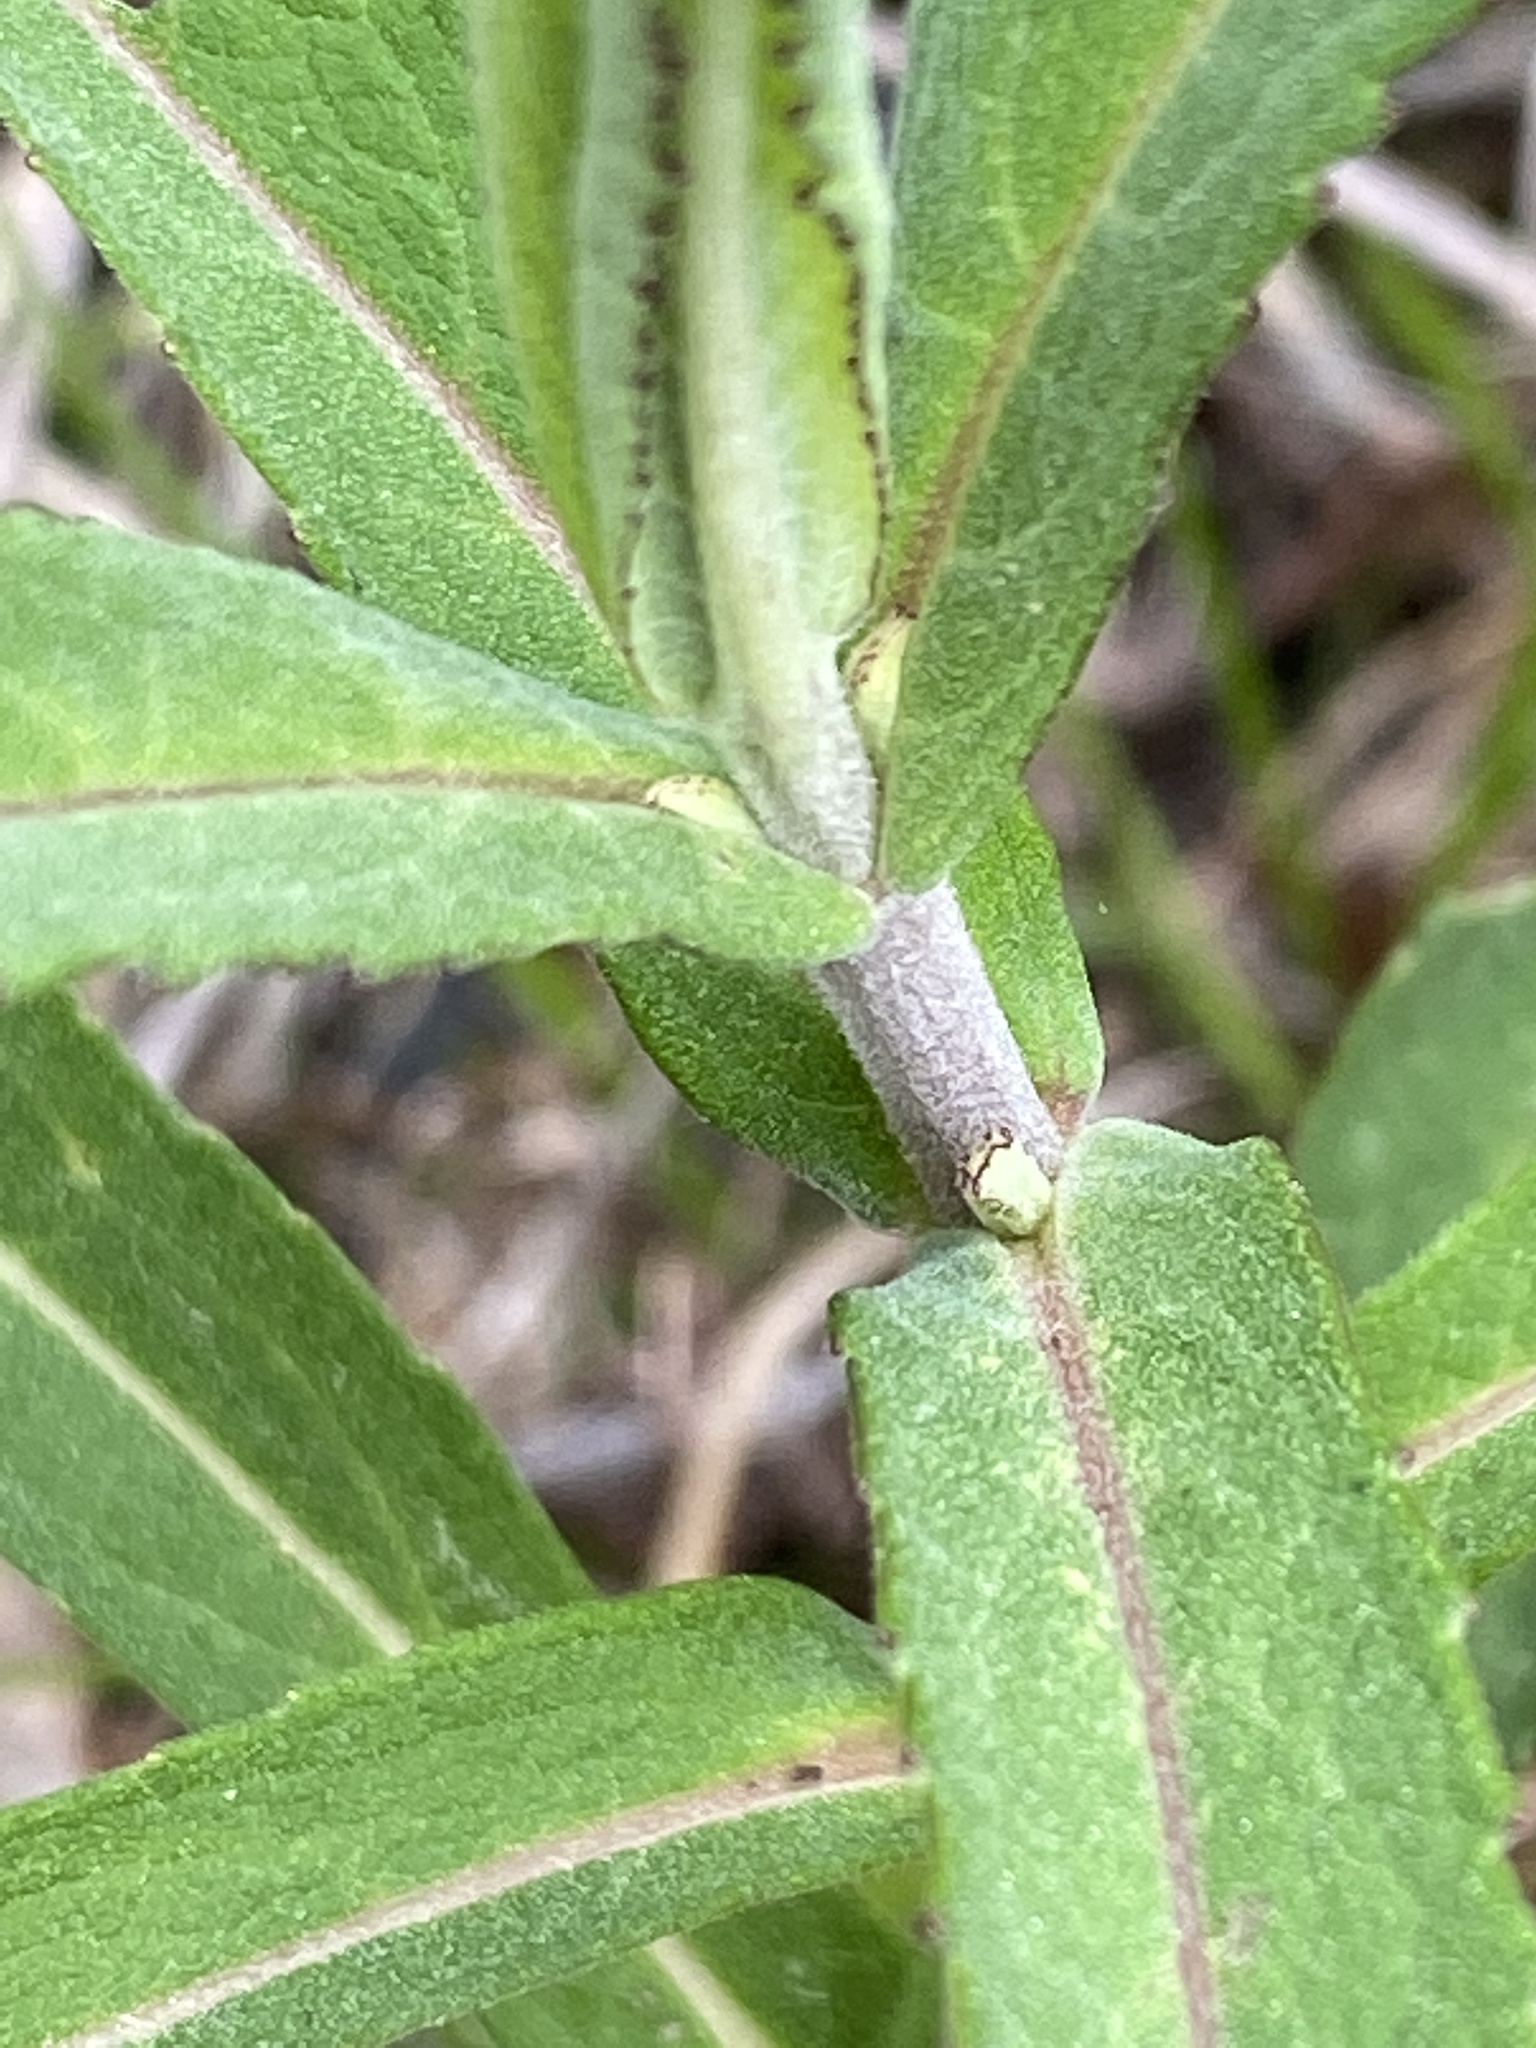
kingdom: Plantae
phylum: Tracheophyta
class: Magnoliopsida
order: Asterales
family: Asteraceae
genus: Eupatorium
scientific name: Eupatorium resinosum
